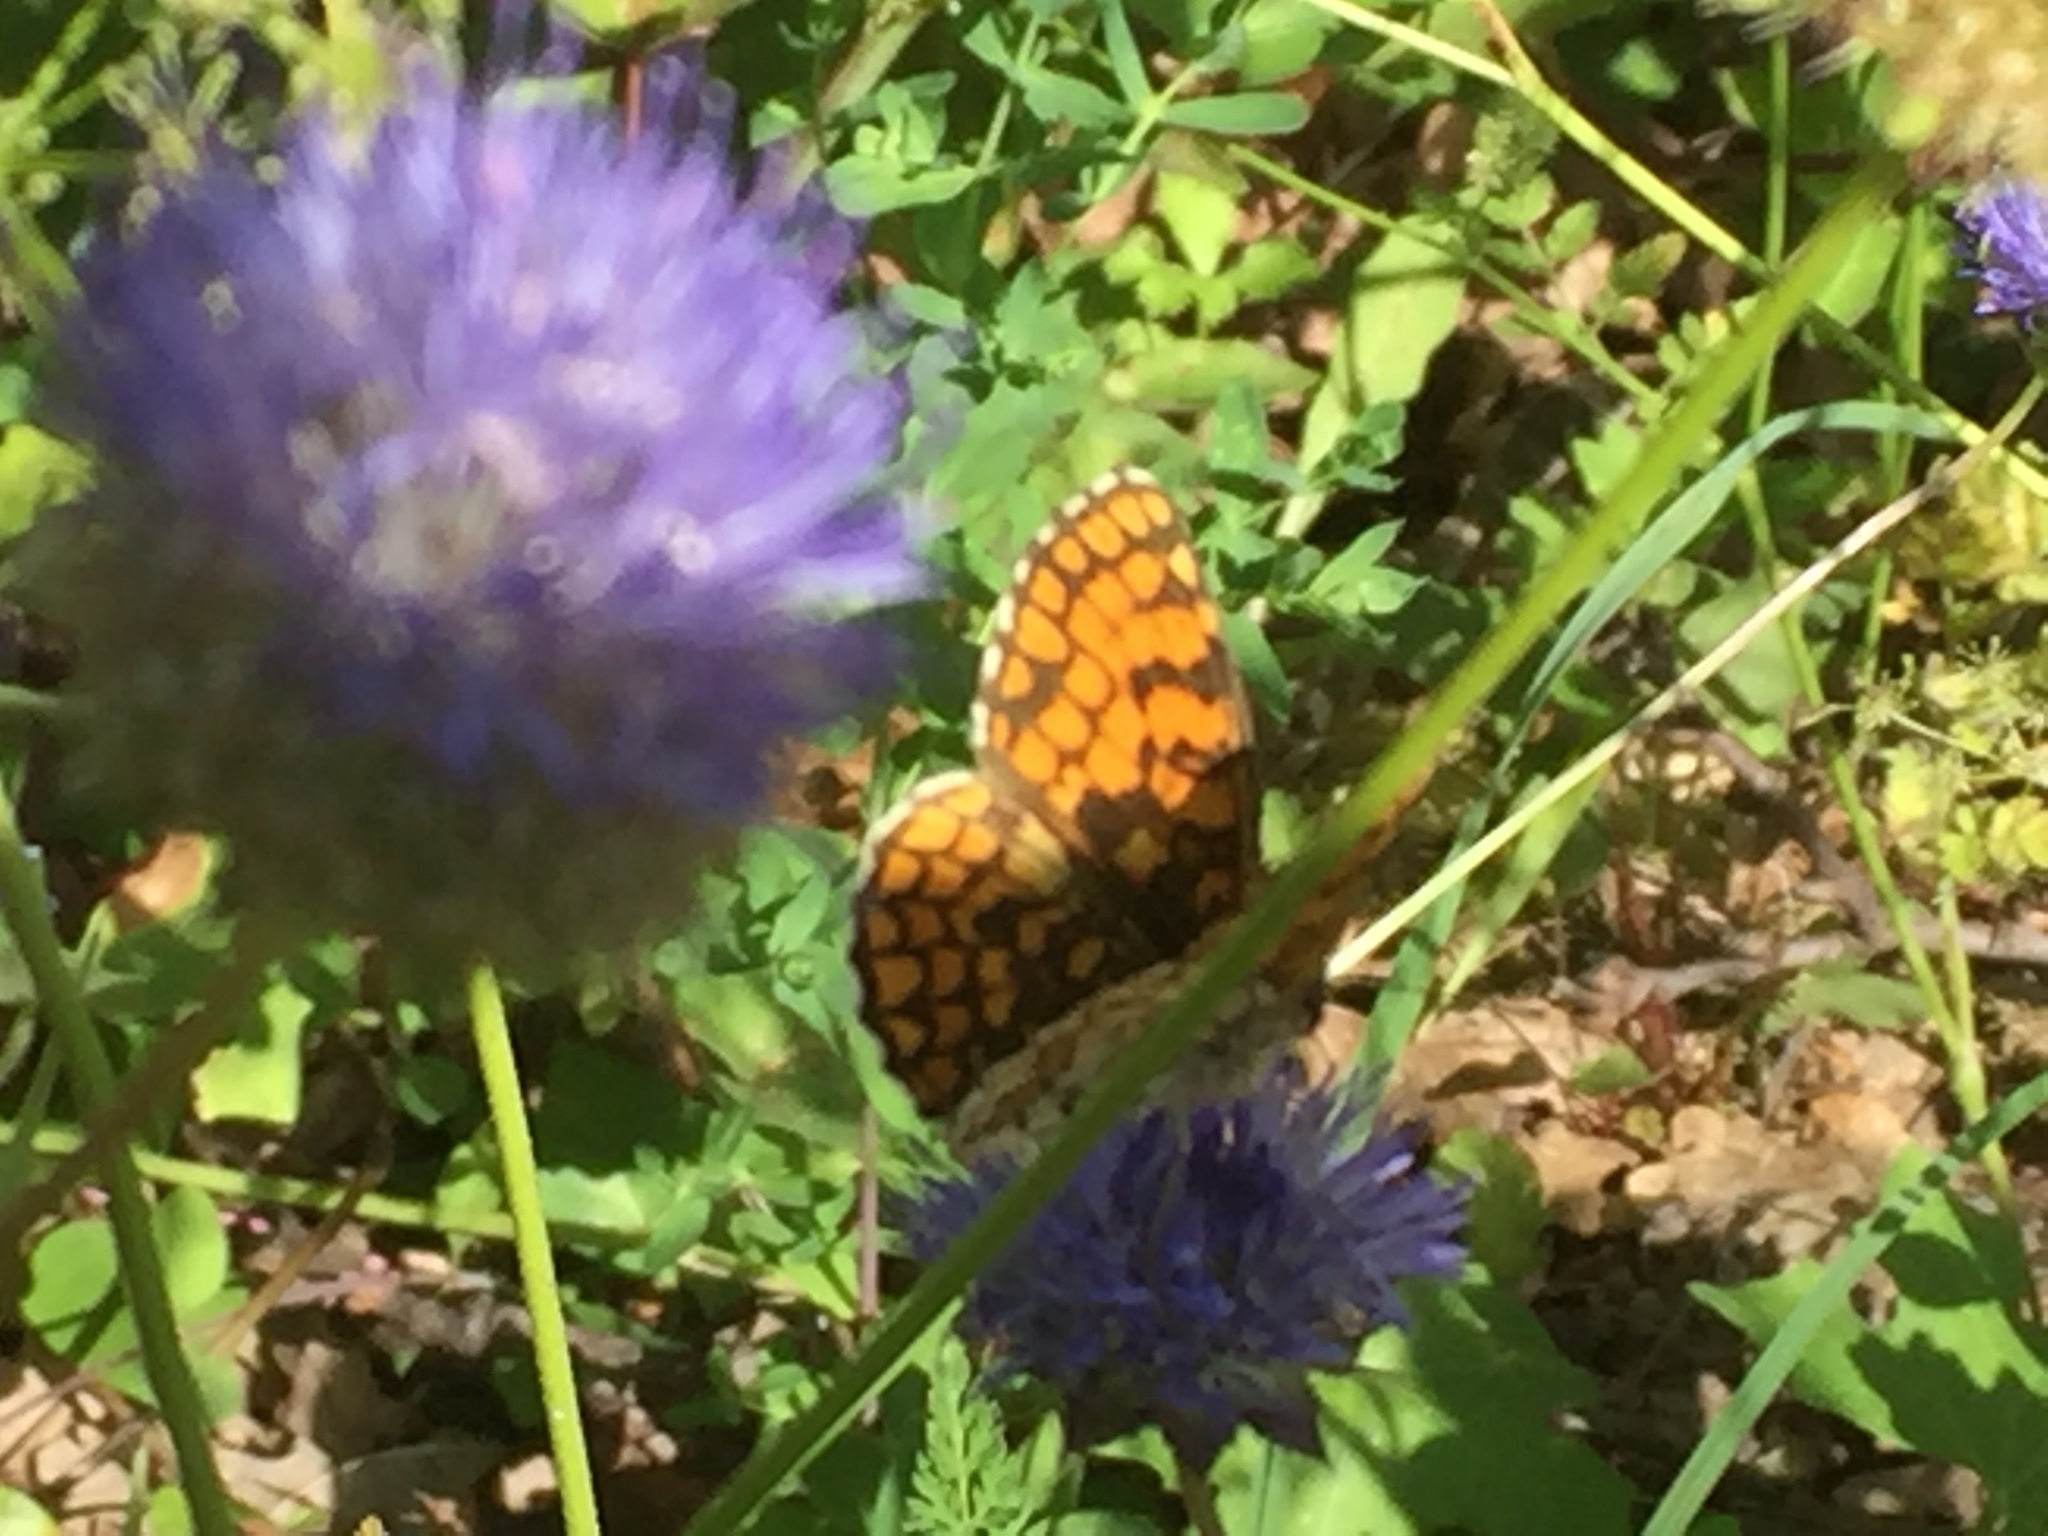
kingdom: Animalia
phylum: Arthropoda
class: Insecta
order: Lepidoptera
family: Nymphalidae
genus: Mellicta
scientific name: Mellicta athalia
